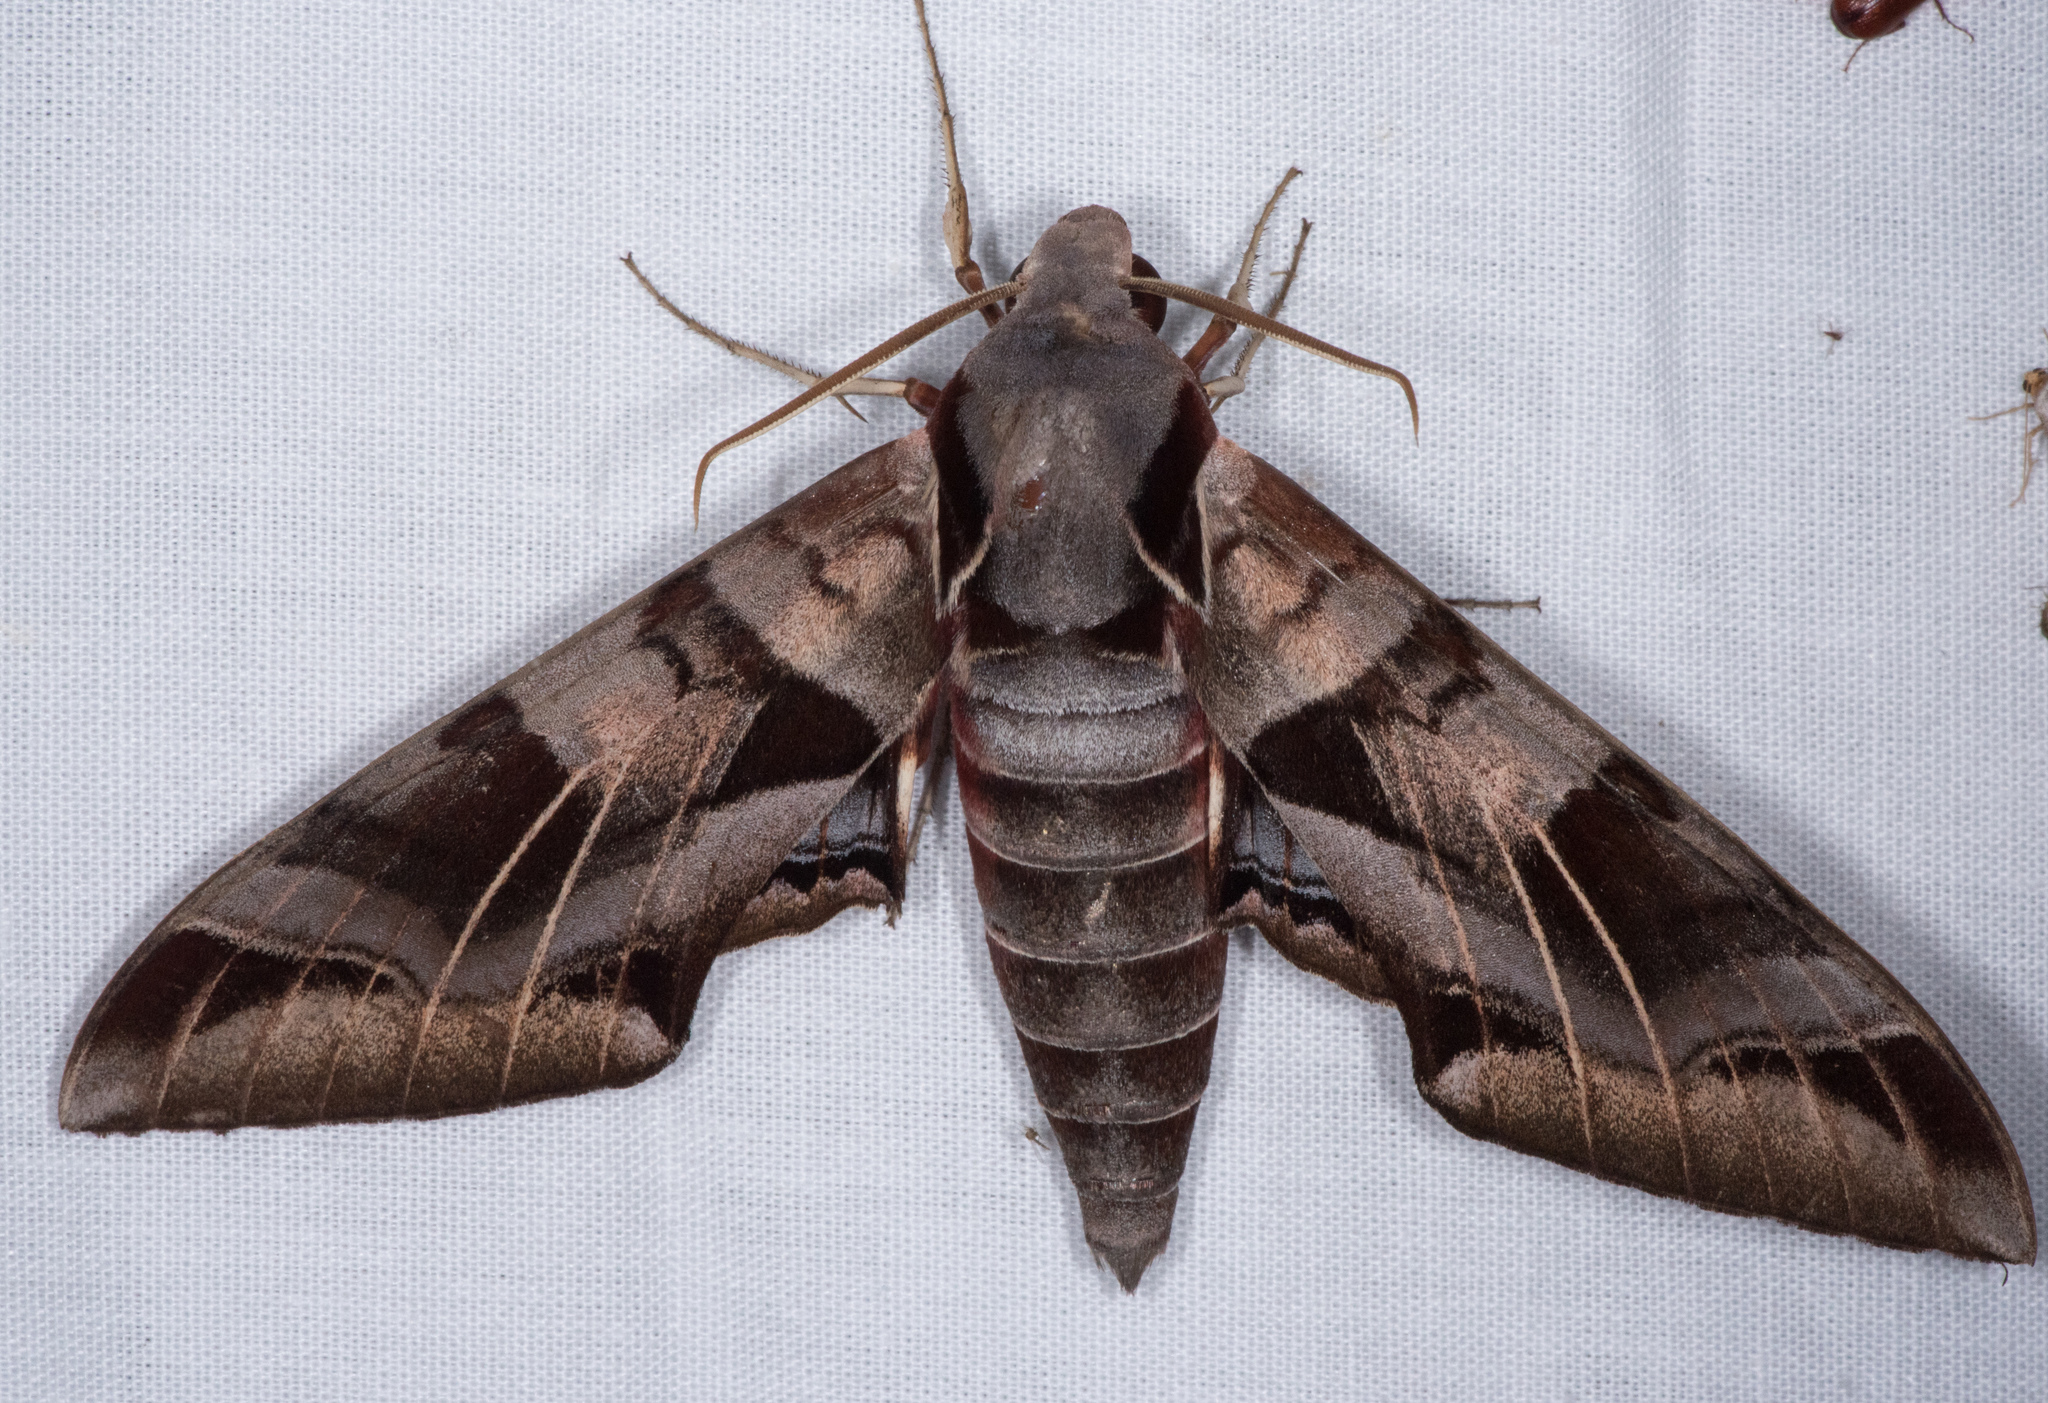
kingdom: Animalia
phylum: Arthropoda
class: Insecta
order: Lepidoptera
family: Sphingidae
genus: Eumorpha
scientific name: Eumorpha typhon
